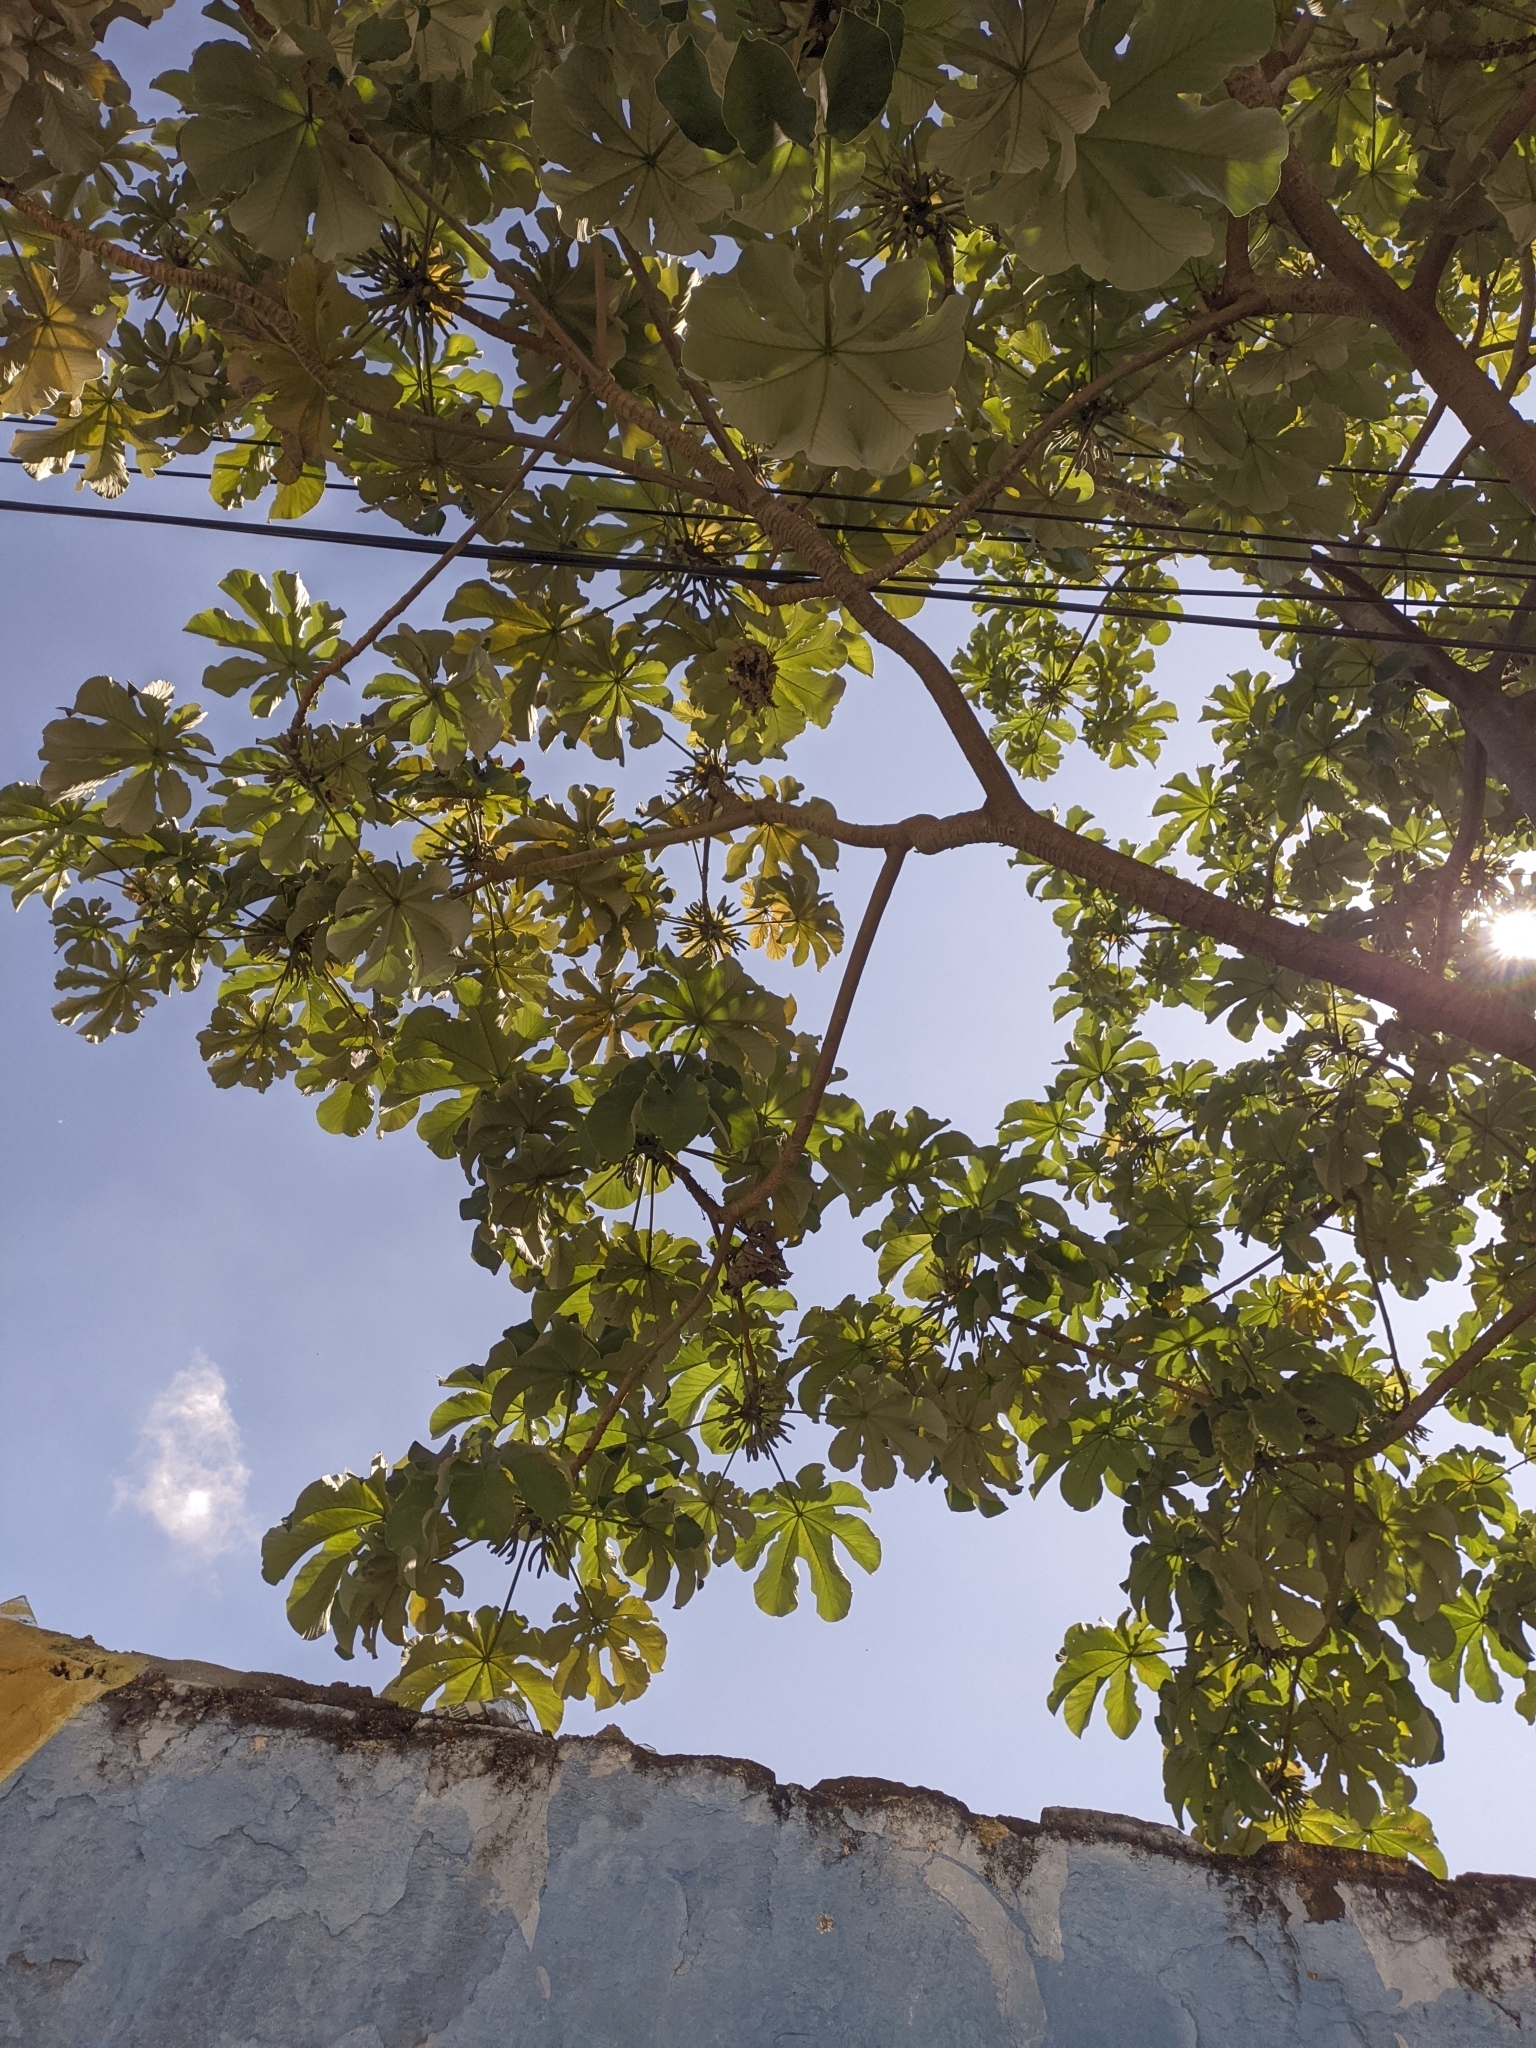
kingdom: Plantae
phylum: Tracheophyta
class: Magnoliopsida
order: Rosales
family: Urticaceae
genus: Cecropia
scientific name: Cecropia peltata
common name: Trumpet-tree
